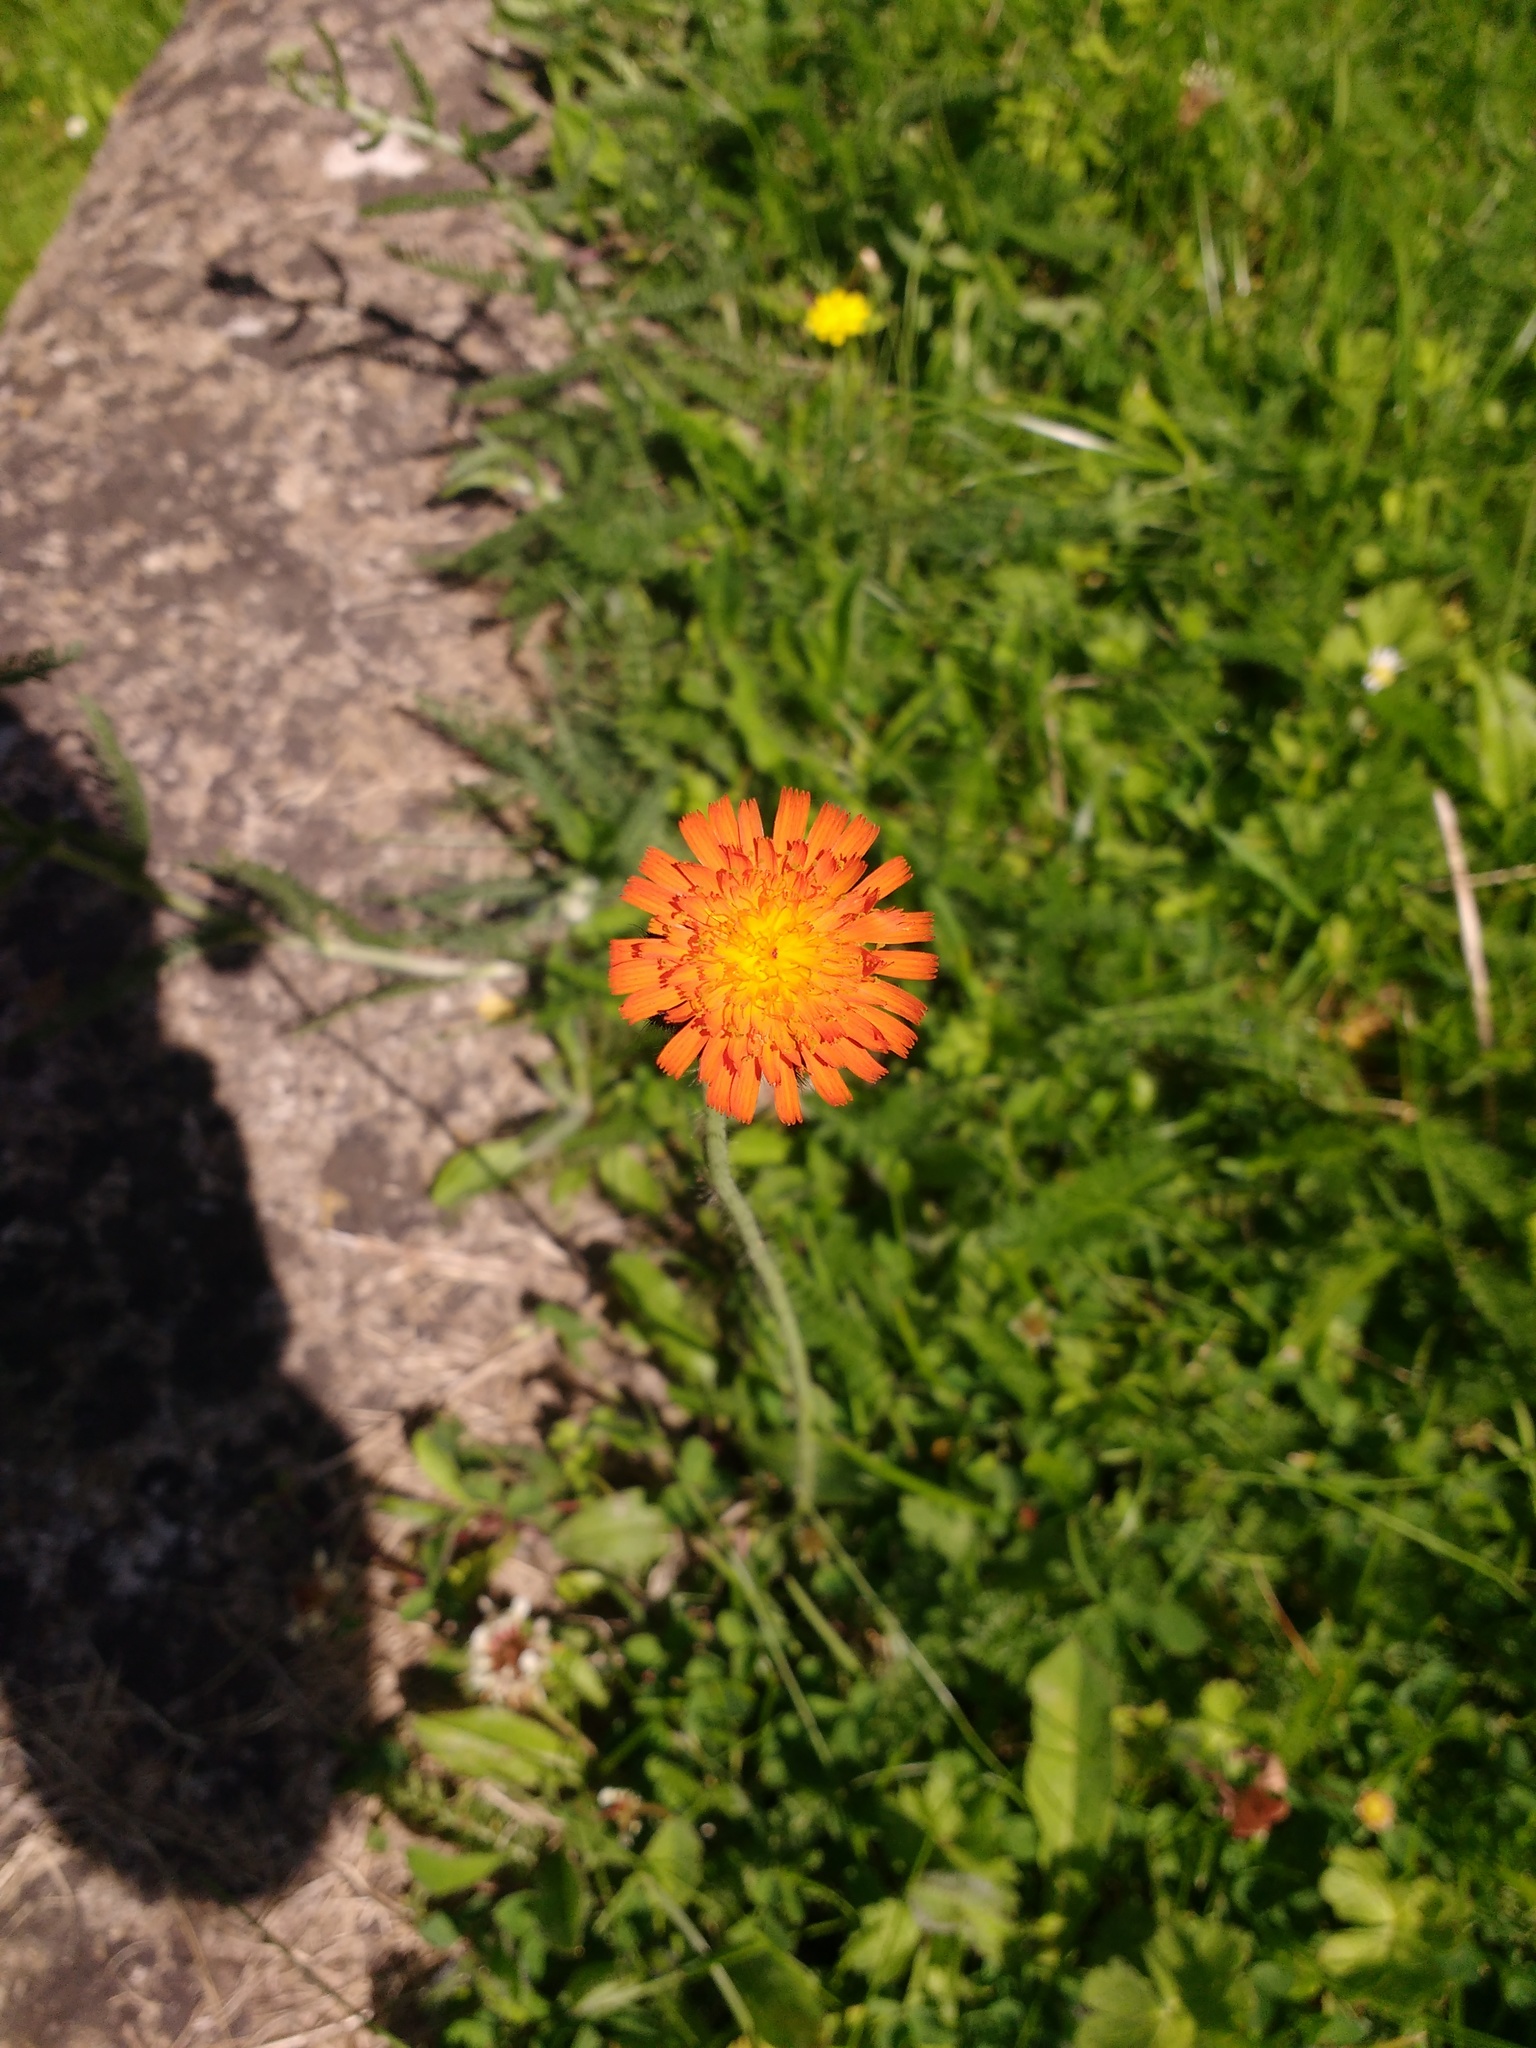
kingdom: Plantae
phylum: Tracheophyta
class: Magnoliopsida
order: Asterales
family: Asteraceae
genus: Pilosella
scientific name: Pilosella aurantiaca
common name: Fox-and-cubs
